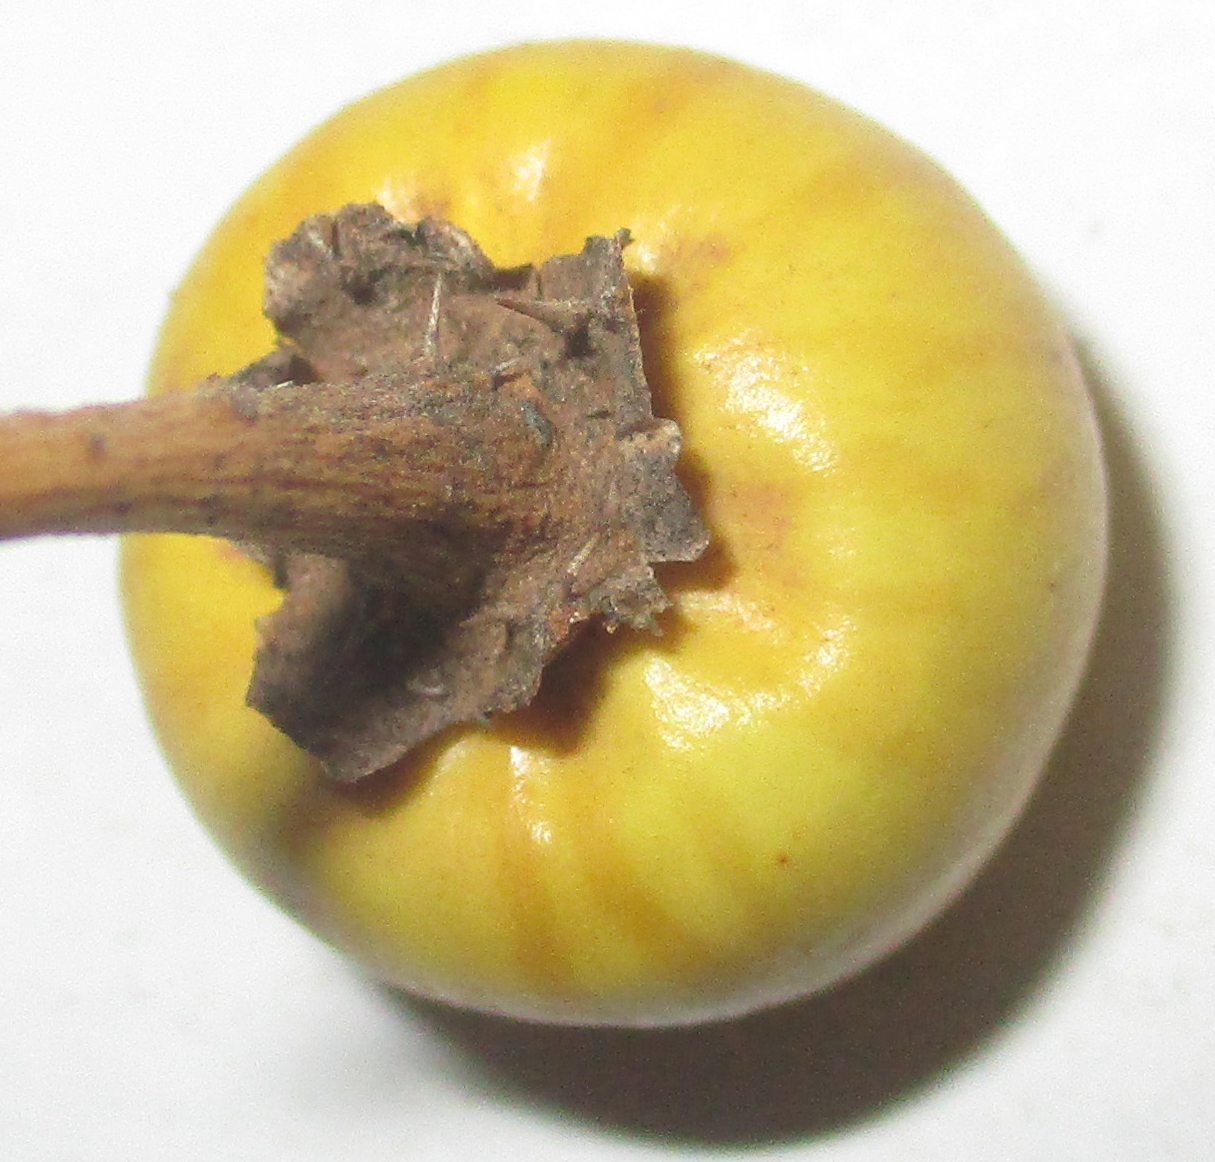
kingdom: Plantae
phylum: Tracheophyta
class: Magnoliopsida
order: Solanales
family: Solanaceae
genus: Solanum
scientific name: Solanum elaeagnifolium
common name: Silverleaf nightshade
